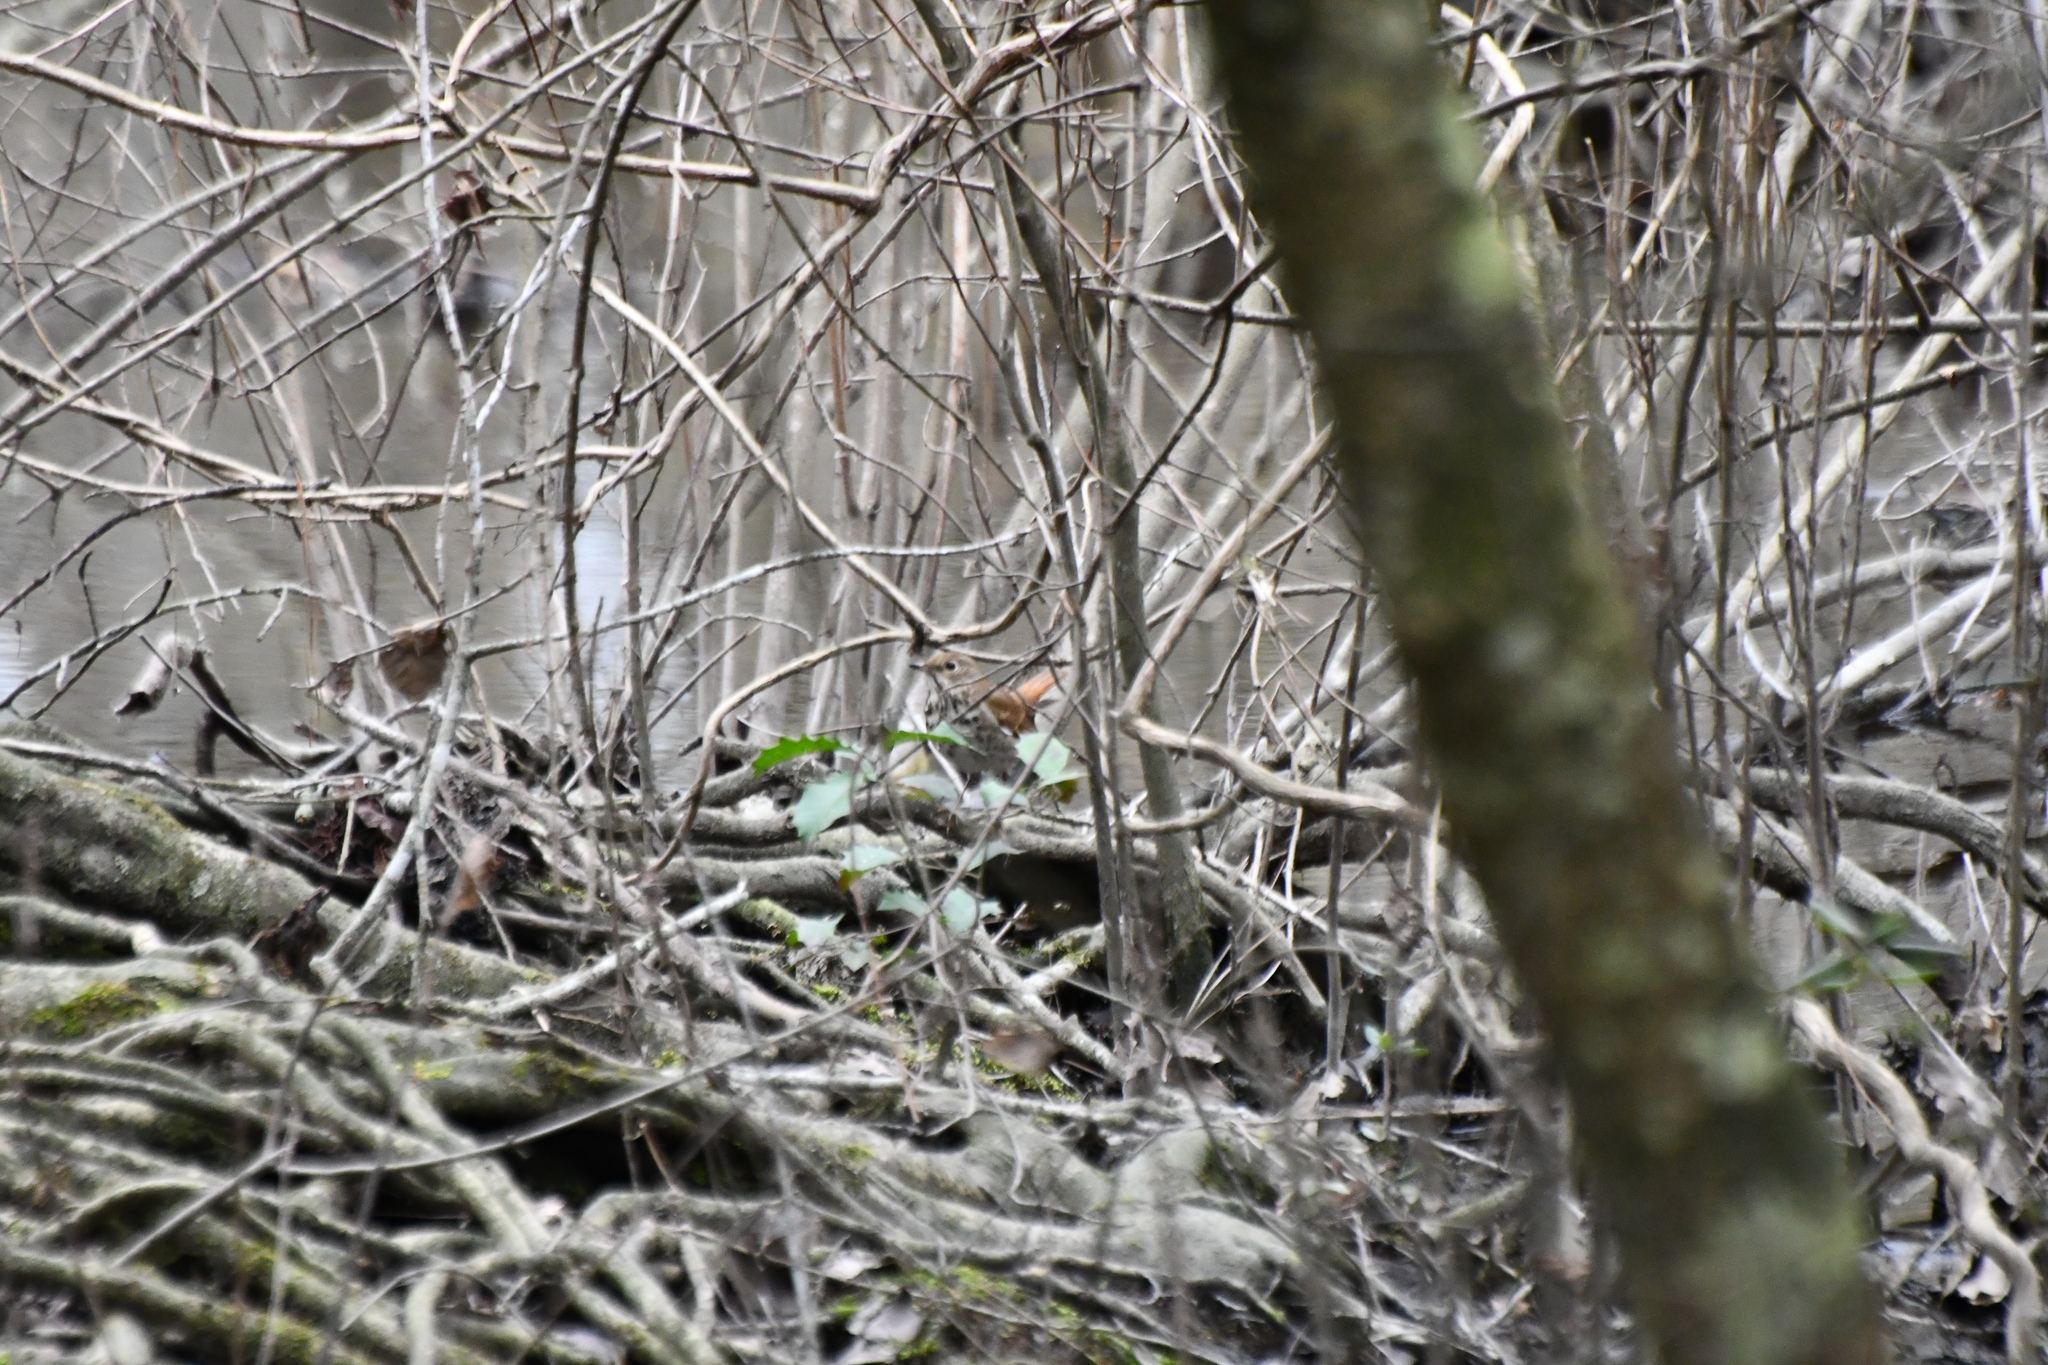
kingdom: Animalia
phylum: Chordata
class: Aves
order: Passeriformes
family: Turdidae
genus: Catharus
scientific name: Catharus guttatus
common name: Hermit thrush
